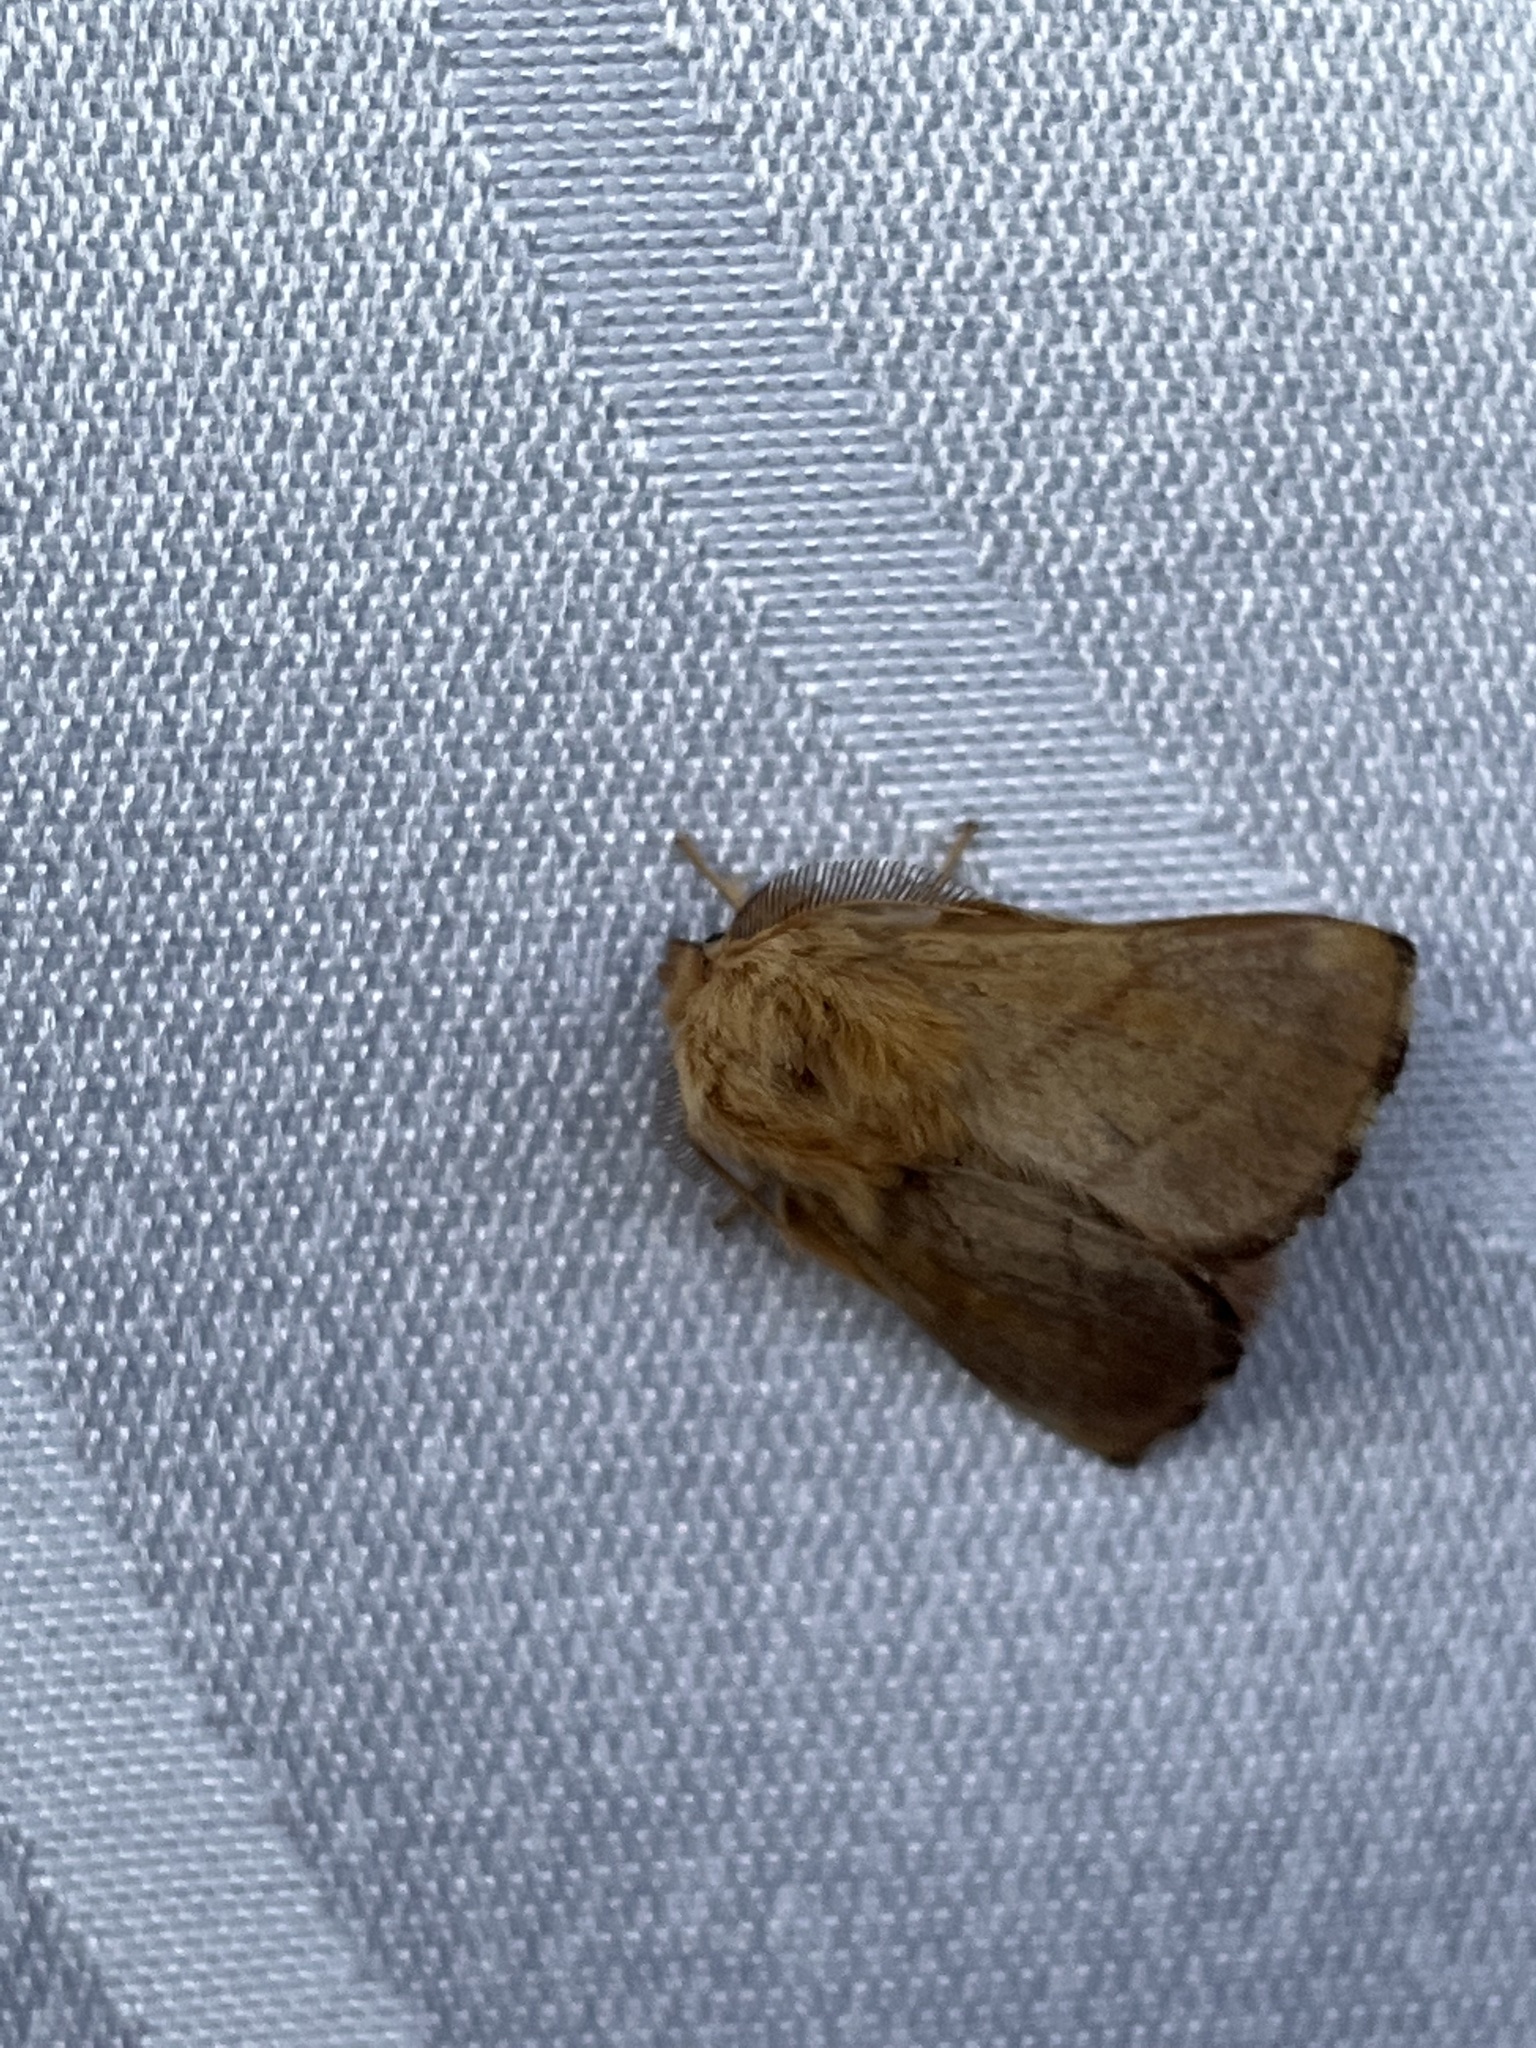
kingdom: Animalia
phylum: Arthropoda
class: Insecta
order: Lepidoptera
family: Lasiocampidae
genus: Malacosoma
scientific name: Malacosoma disstria
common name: Forest tent caterpillar
